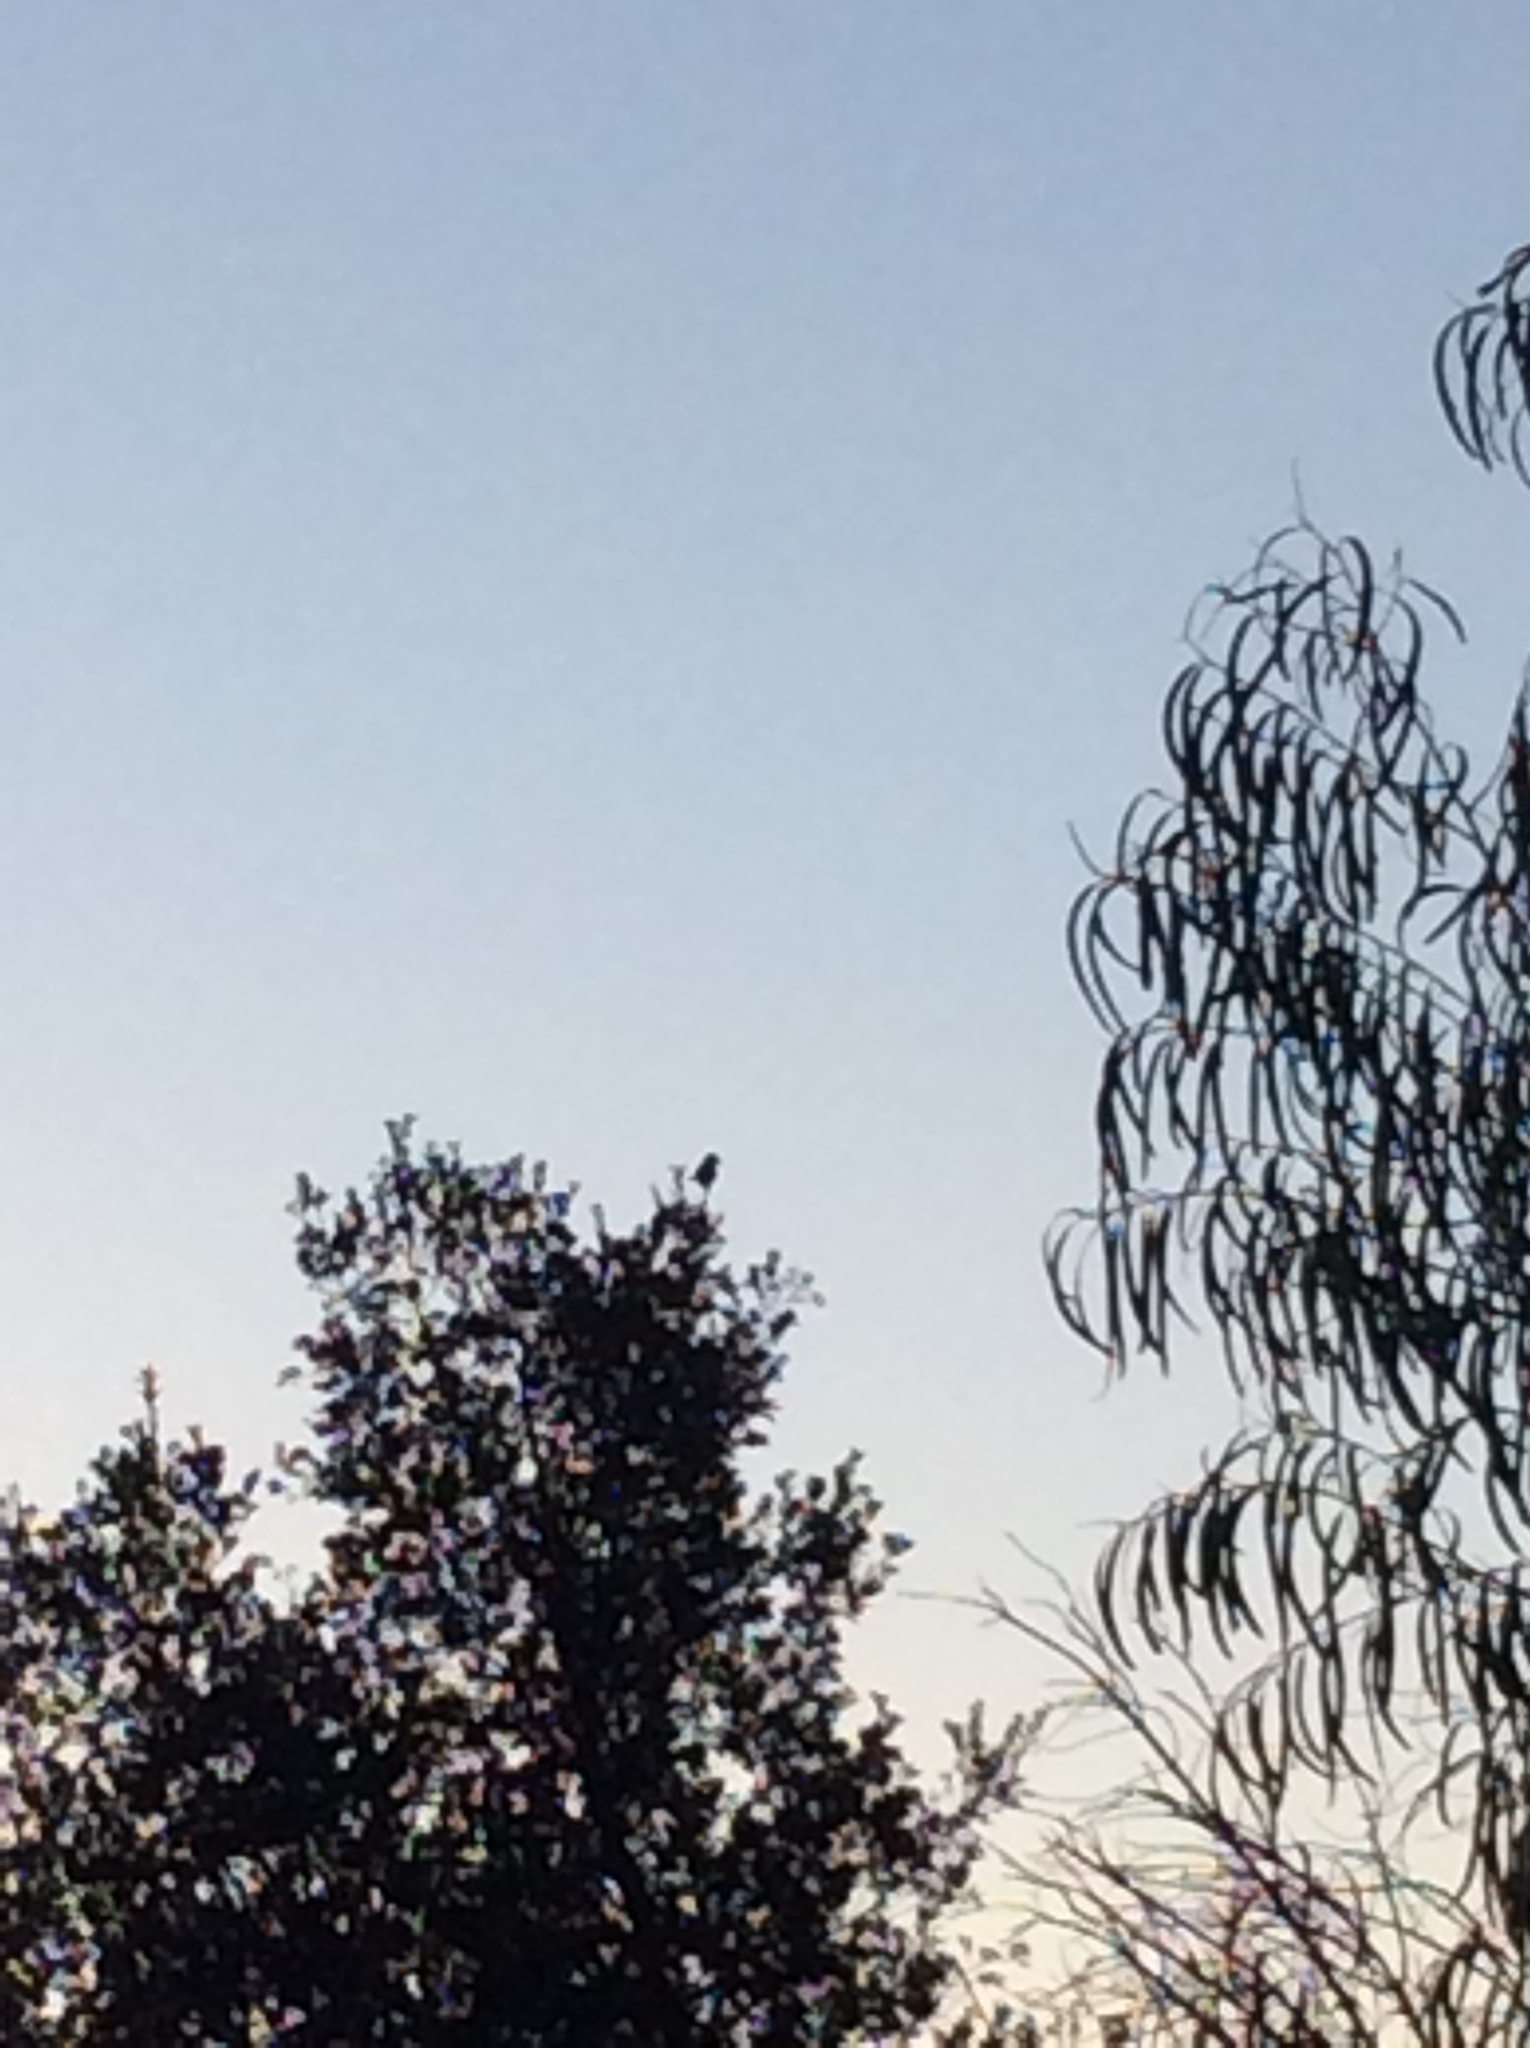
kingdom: Animalia
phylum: Chordata
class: Aves
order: Passeriformes
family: Corvidae
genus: Aphelocoma
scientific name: Aphelocoma californica
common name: California scrub-jay
